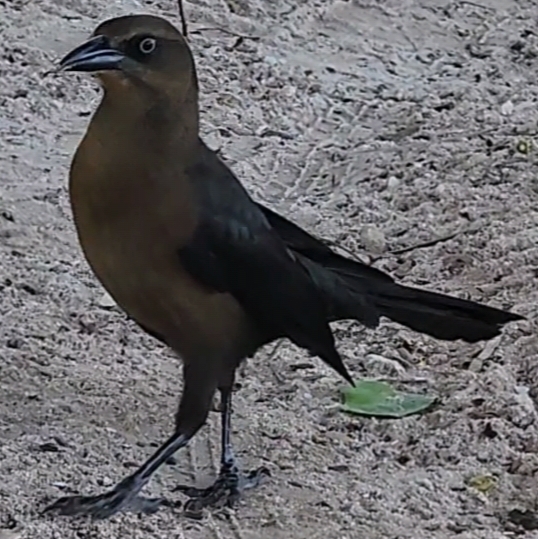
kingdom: Animalia
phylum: Chordata
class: Aves
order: Passeriformes
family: Icteridae
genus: Quiscalus
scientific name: Quiscalus mexicanus
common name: Great-tailed grackle
